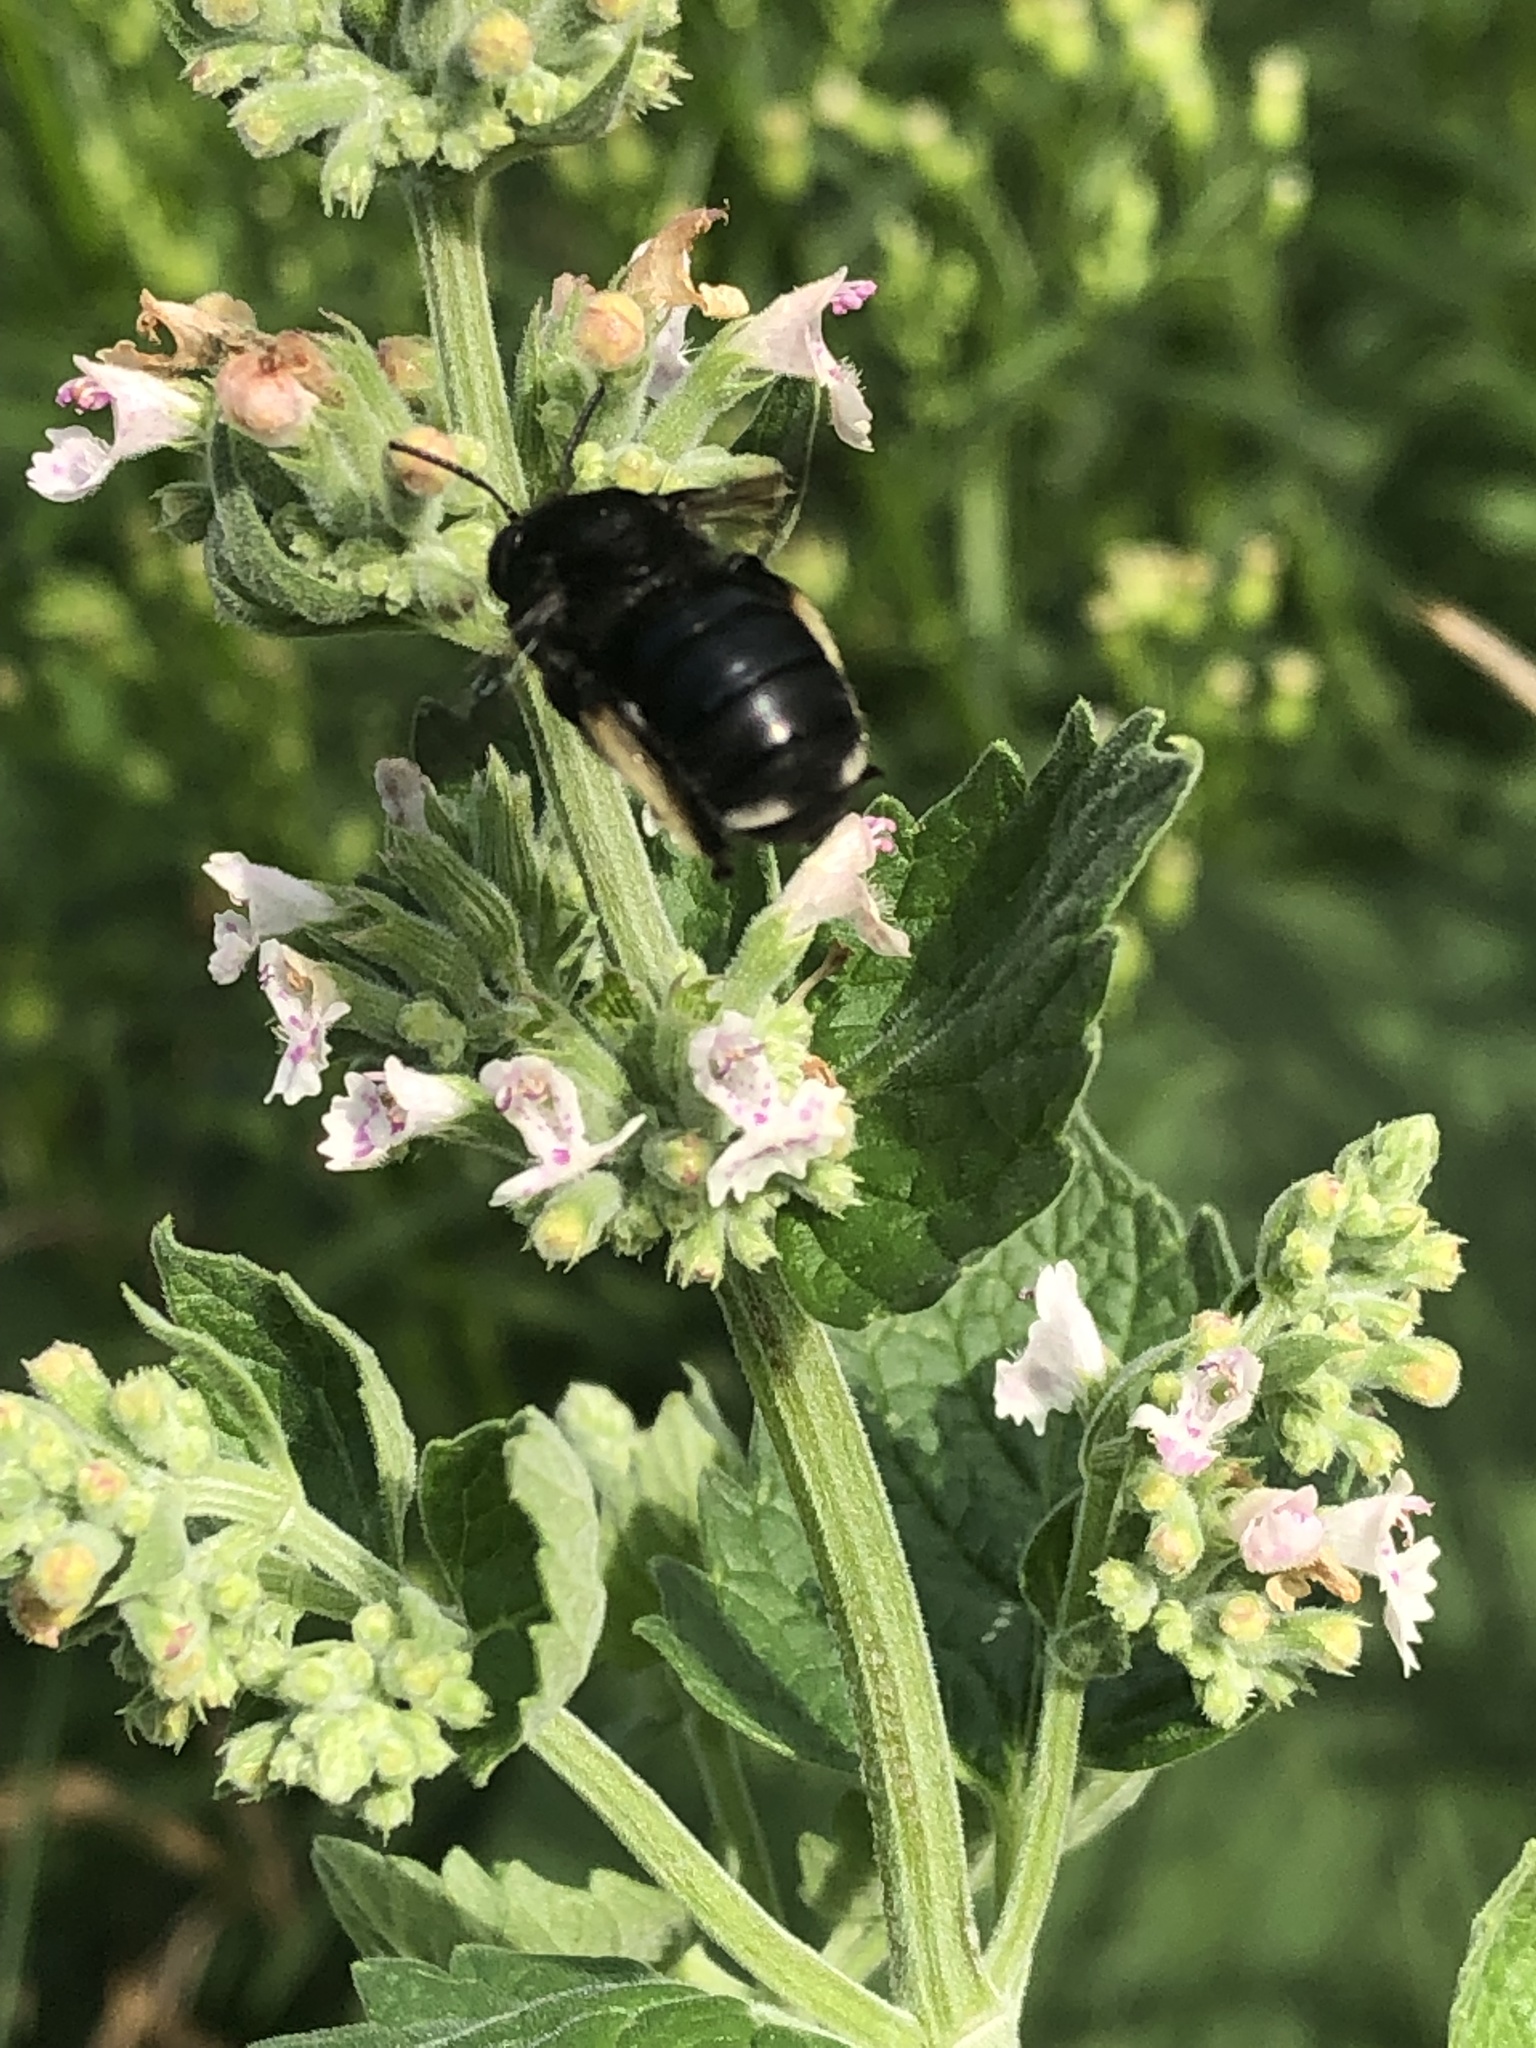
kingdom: Animalia
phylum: Arthropoda
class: Insecta
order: Hymenoptera
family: Apidae
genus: Melissodes
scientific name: Melissodes bimaculatus
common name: Two-spotted long-horned bee
